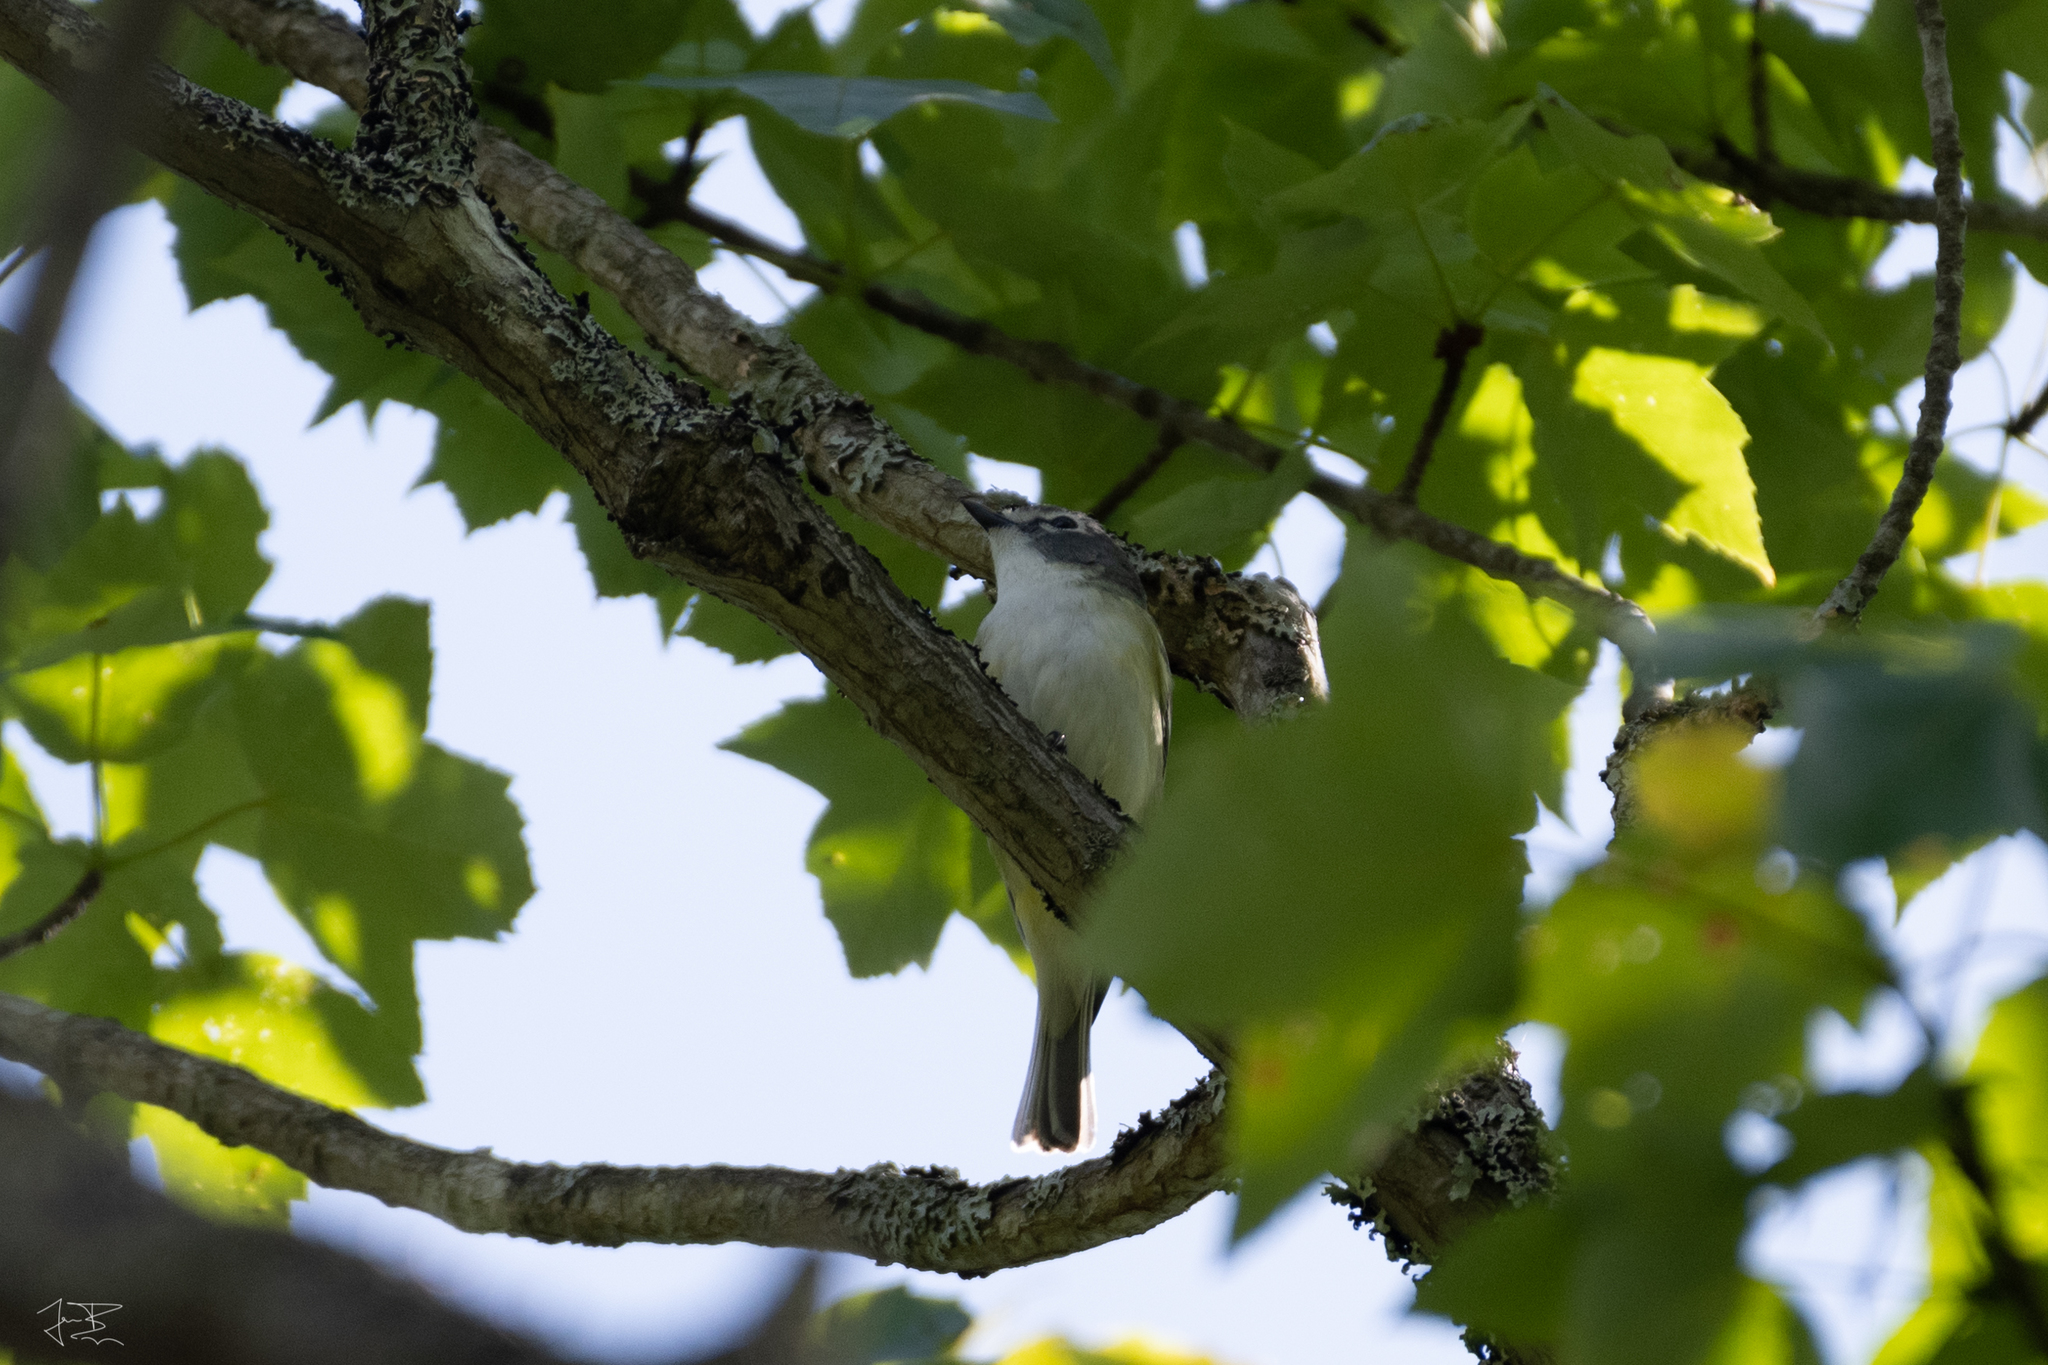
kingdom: Animalia
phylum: Chordata
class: Aves
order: Passeriformes
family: Vireonidae
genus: Vireo
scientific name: Vireo solitarius
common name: Blue-headed vireo
